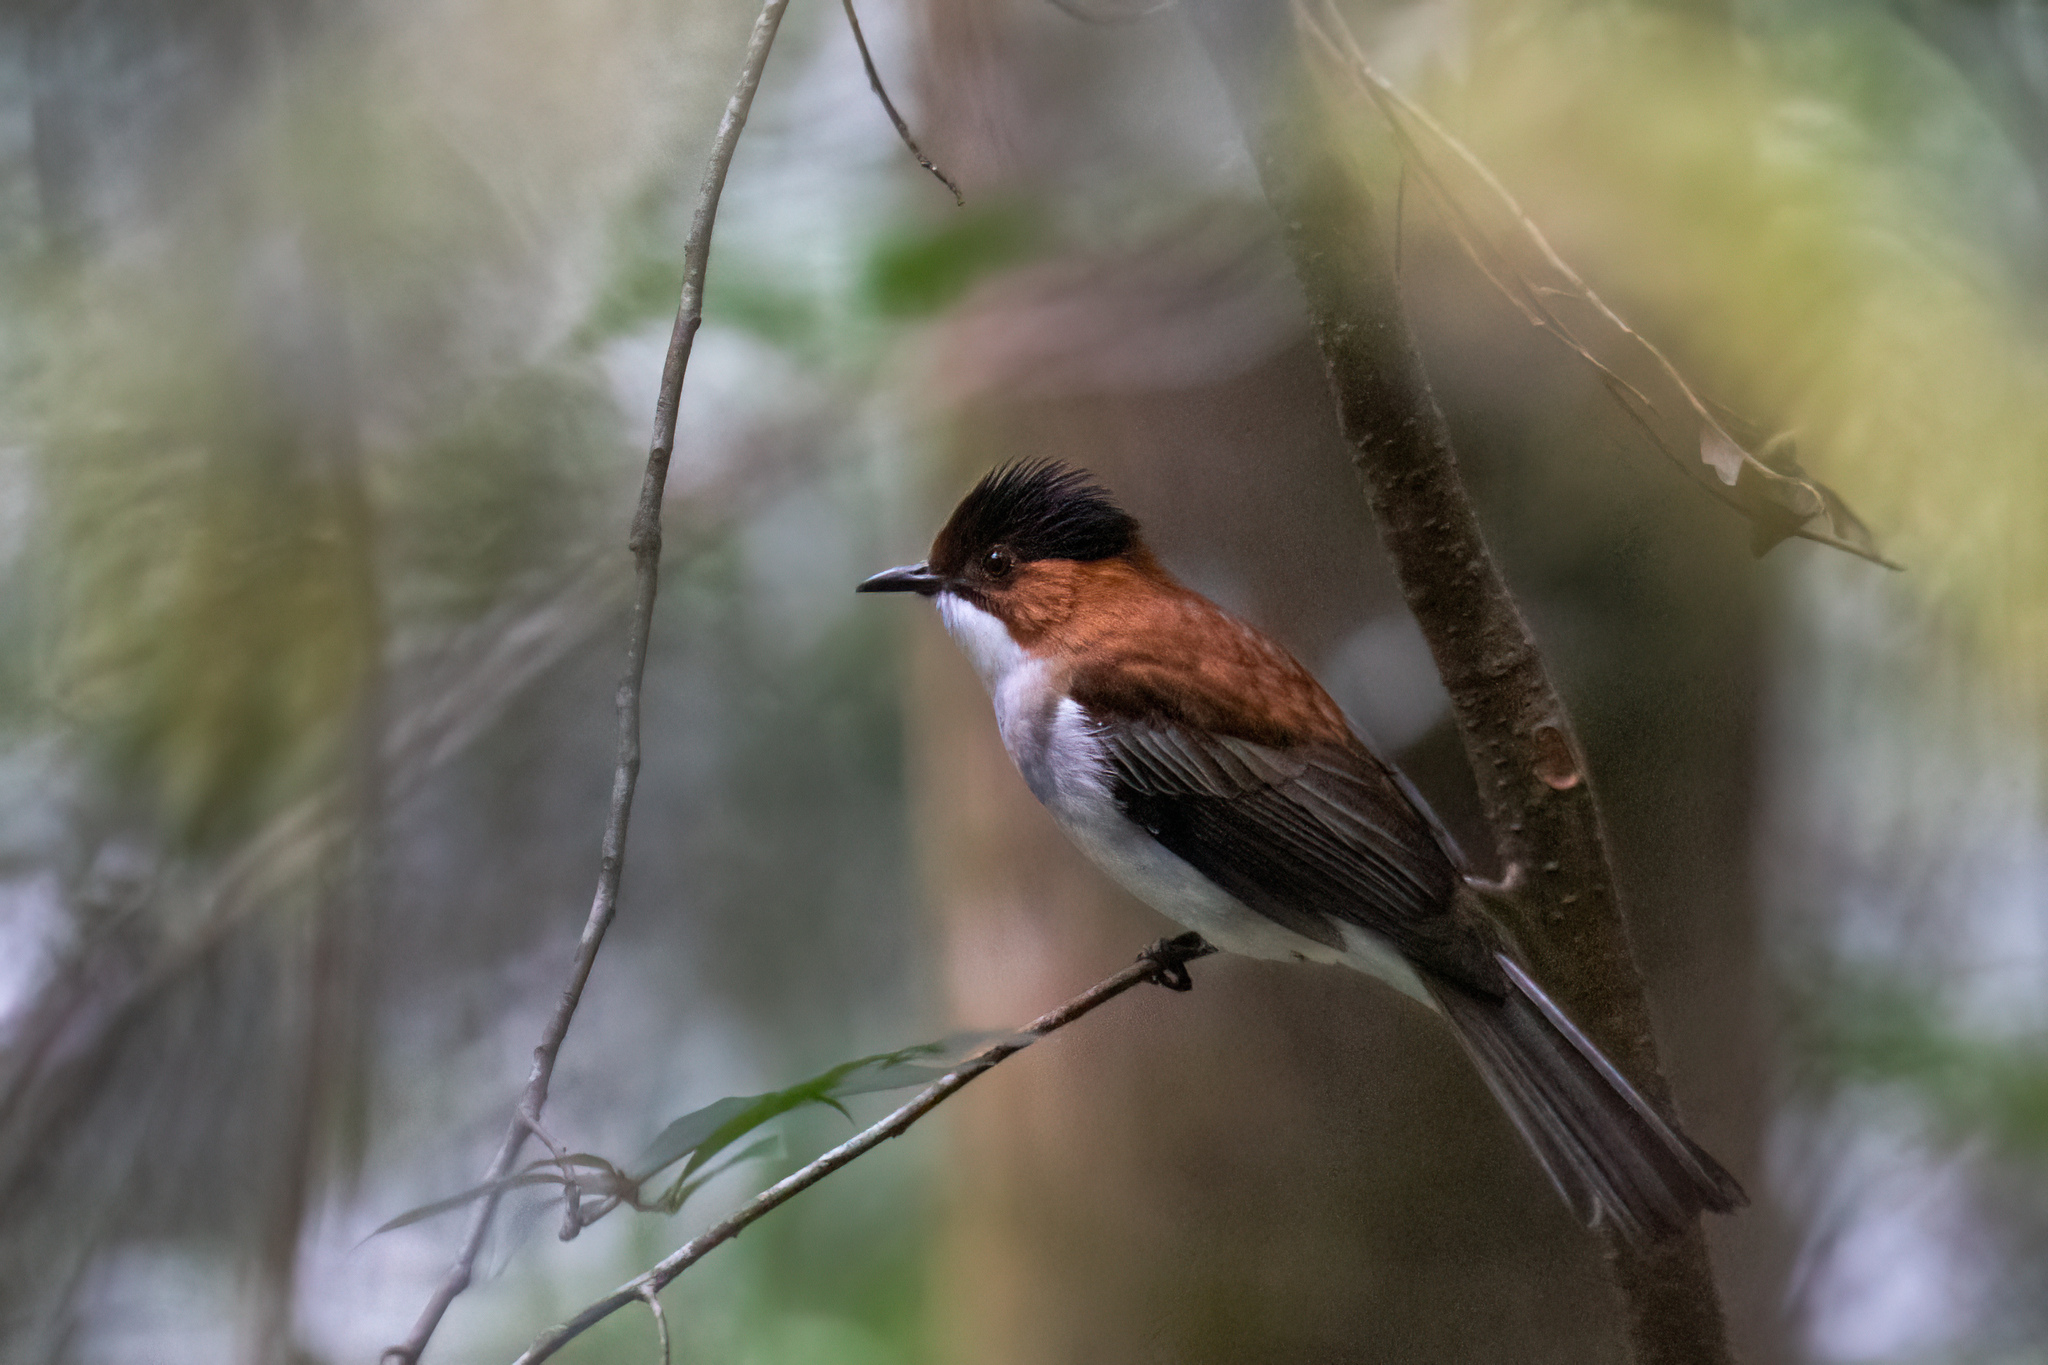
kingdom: Animalia
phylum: Chordata
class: Aves
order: Passeriformes
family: Pycnonotidae
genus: Hemixos
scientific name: Hemixos castanonotus
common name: Chestnut bulbul
